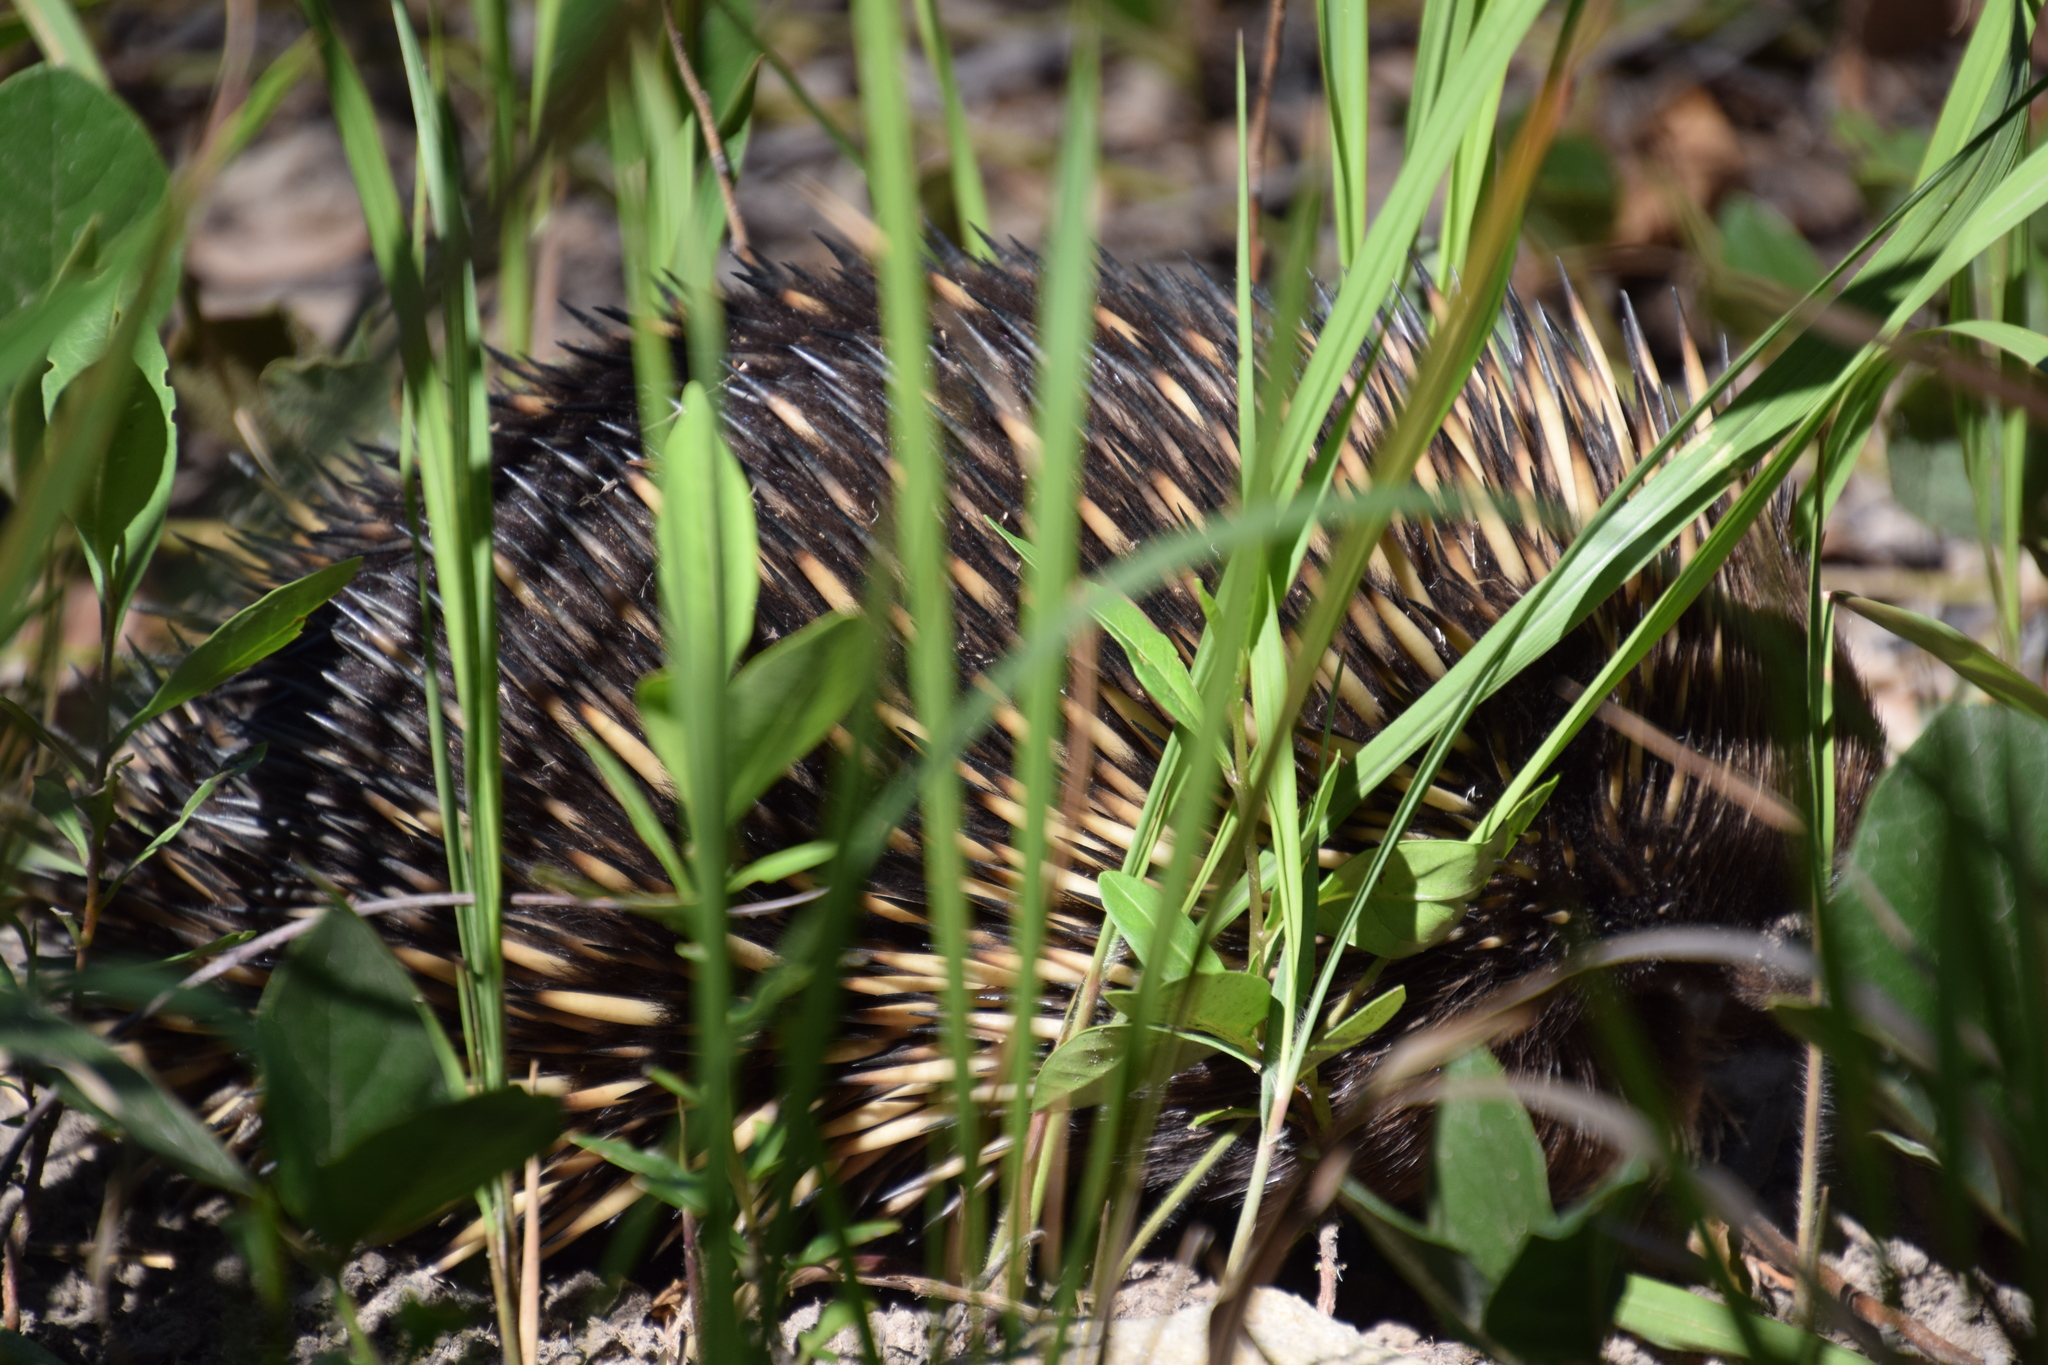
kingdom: Animalia
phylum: Chordata
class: Mammalia
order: Monotremata
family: Tachyglossidae
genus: Tachyglossus
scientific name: Tachyglossus aculeatus
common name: Short-beaked echidna
